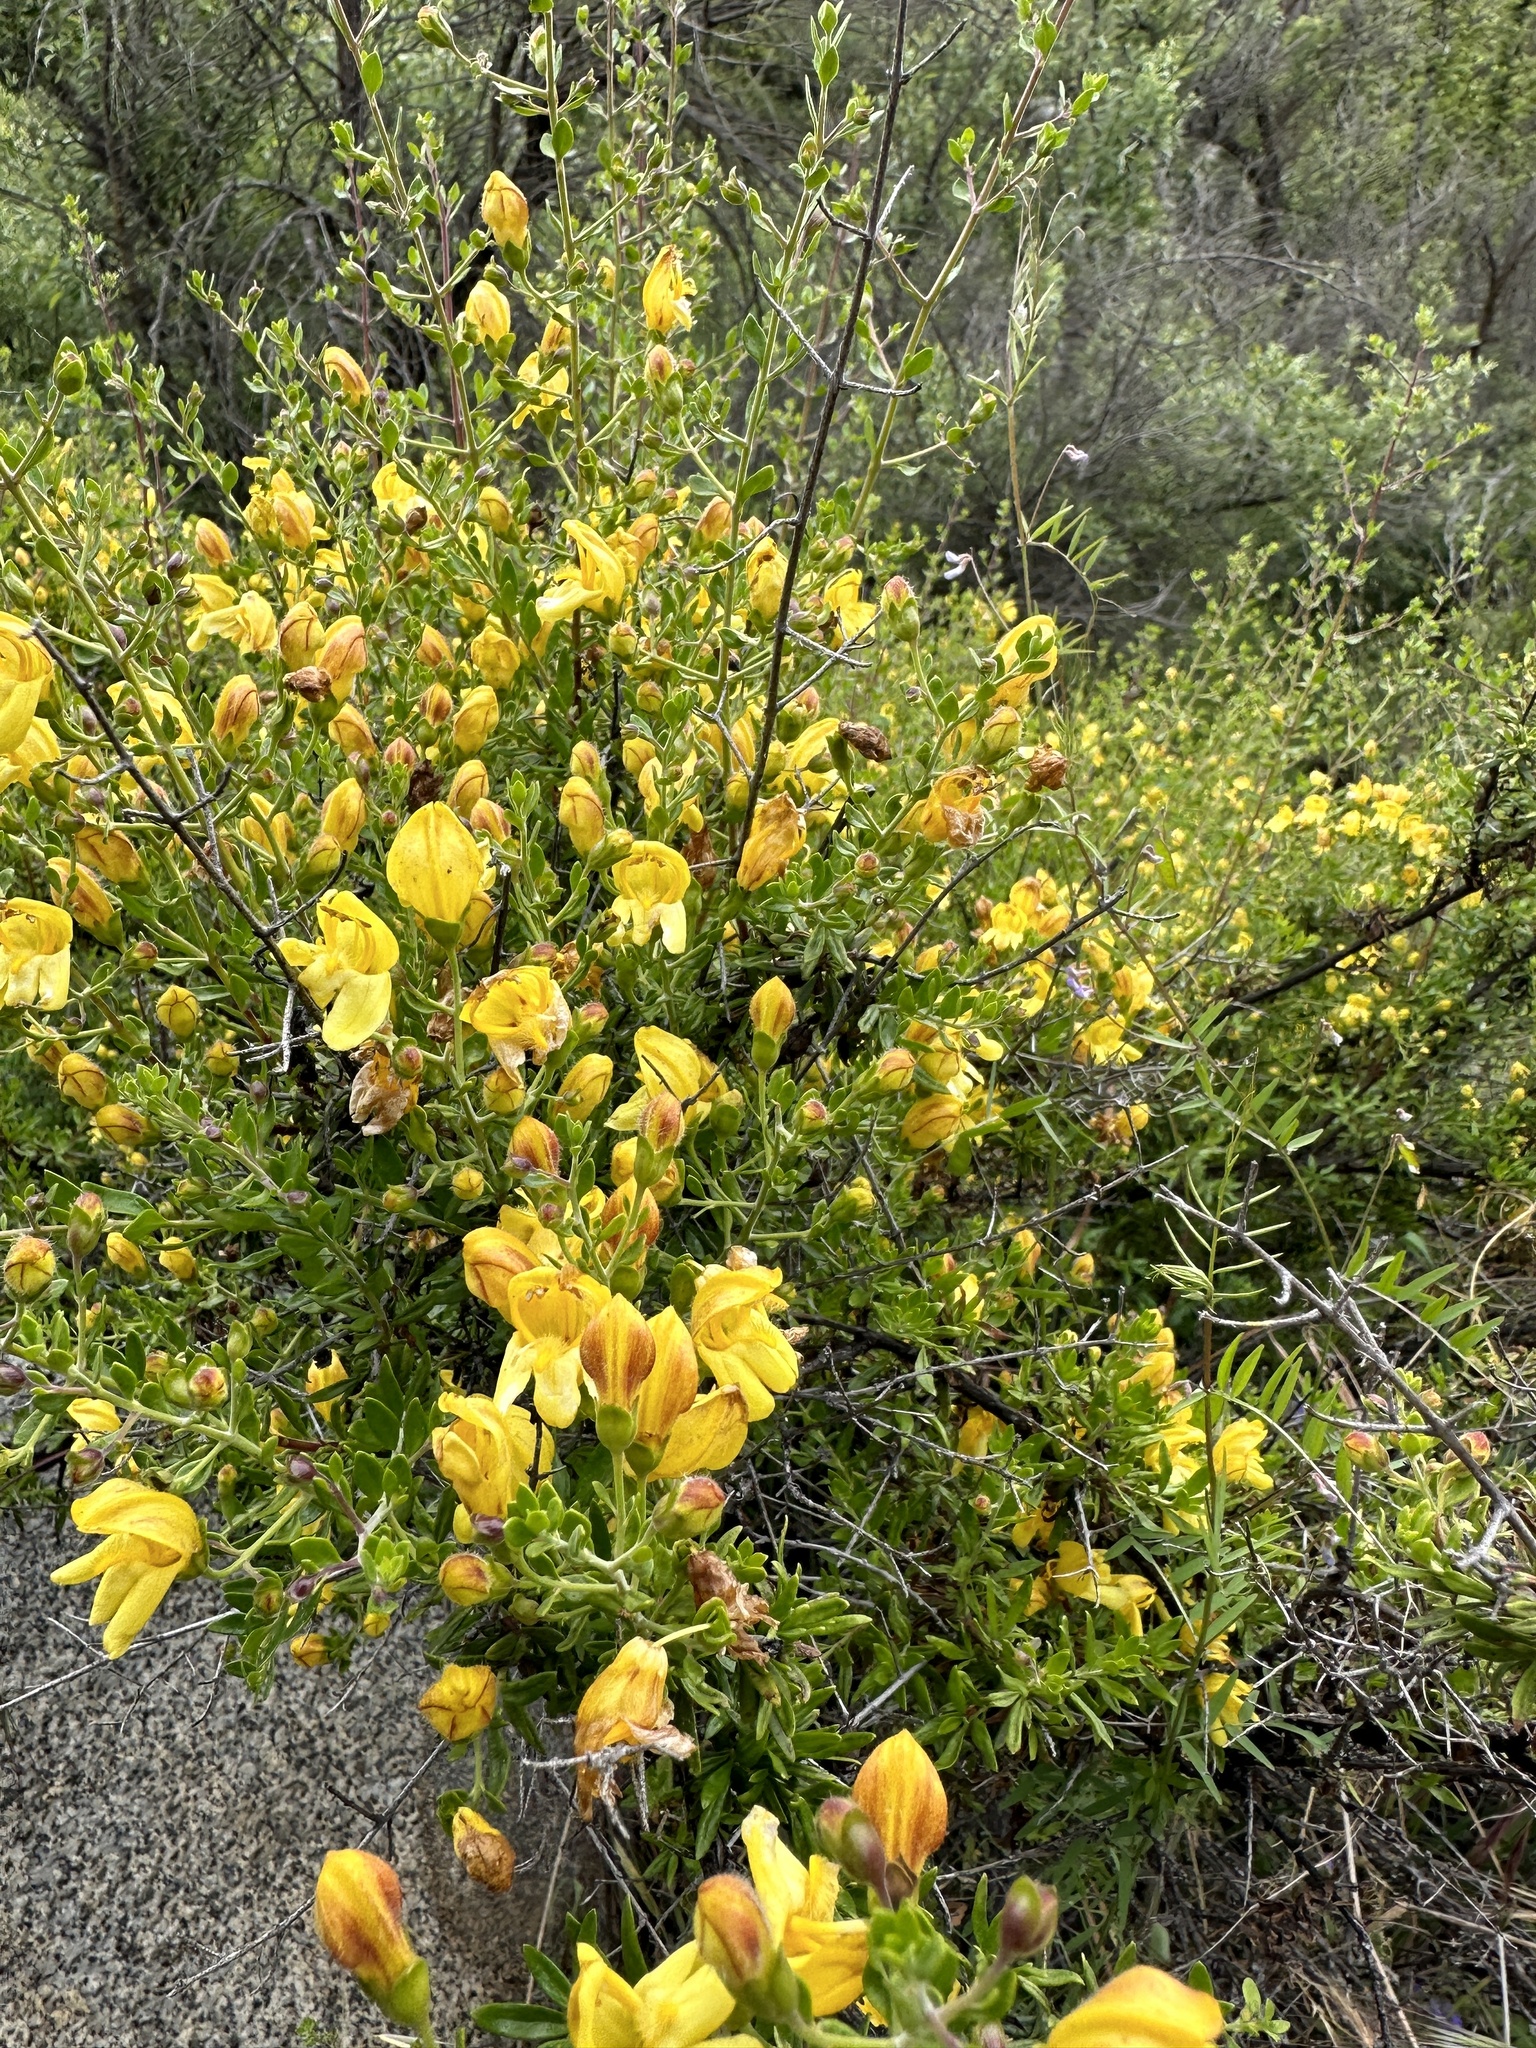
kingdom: Plantae
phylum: Tracheophyta
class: Magnoliopsida
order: Lamiales
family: Plantaginaceae
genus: Keckiella
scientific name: Keckiella antirrhinoides
